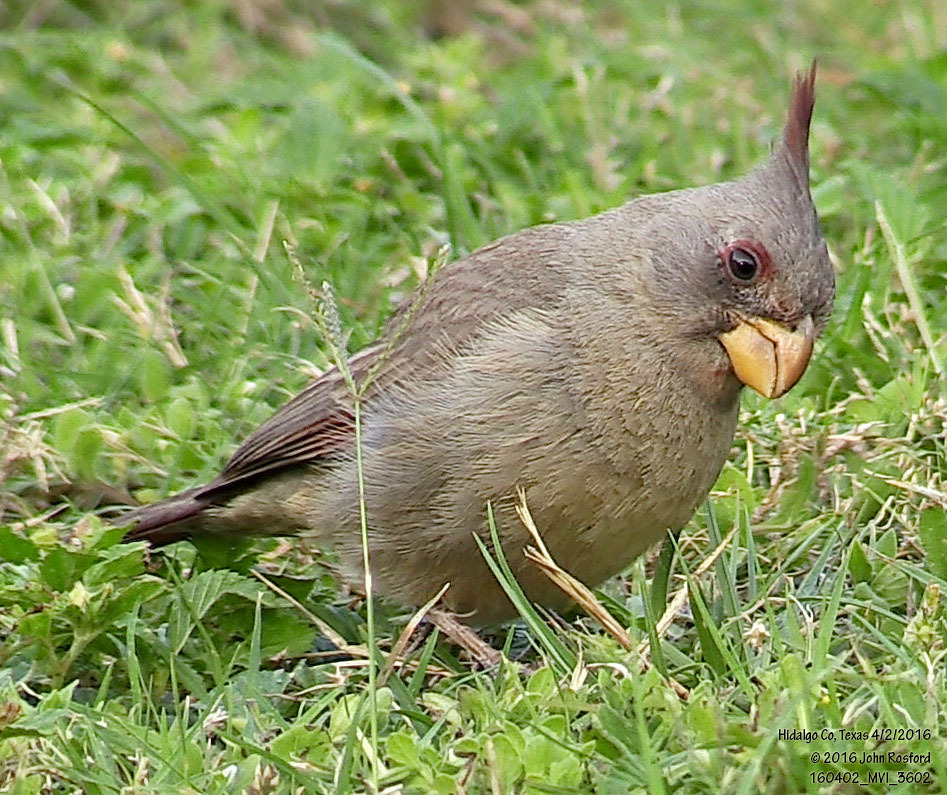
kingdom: Animalia
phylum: Chordata
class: Aves
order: Passeriformes
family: Cardinalidae
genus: Cardinalis
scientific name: Cardinalis sinuatus
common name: Pyrrhuloxia
